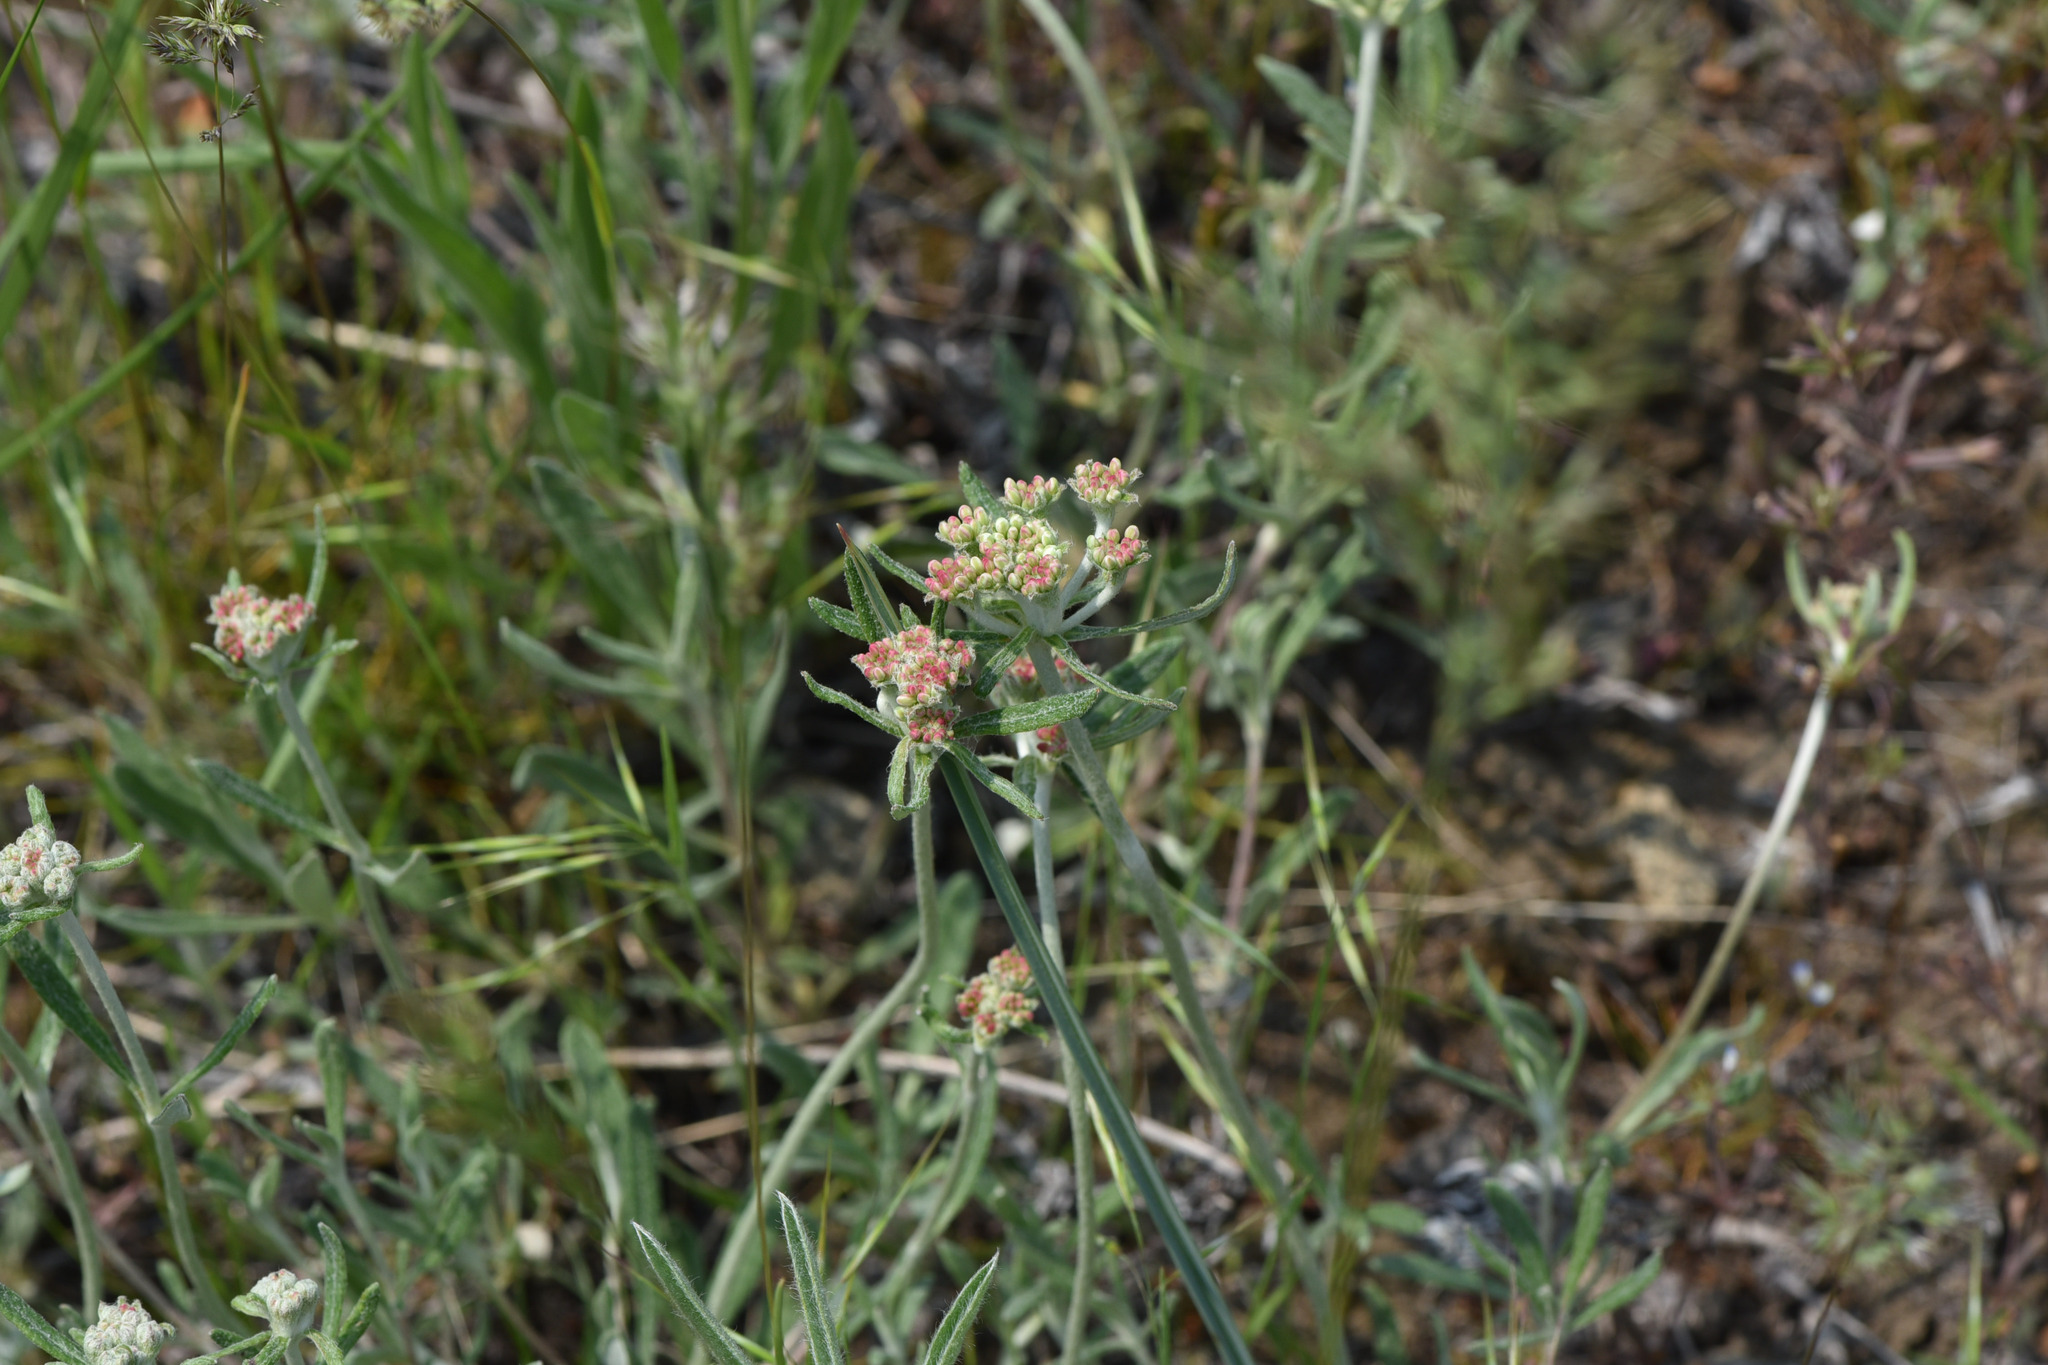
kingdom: Plantae
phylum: Tracheophyta
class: Magnoliopsida
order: Caryophyllales
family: Polygonaceae
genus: Eriogonum
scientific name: Eriogonum heracleoides
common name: Wyeth's buckwheat
